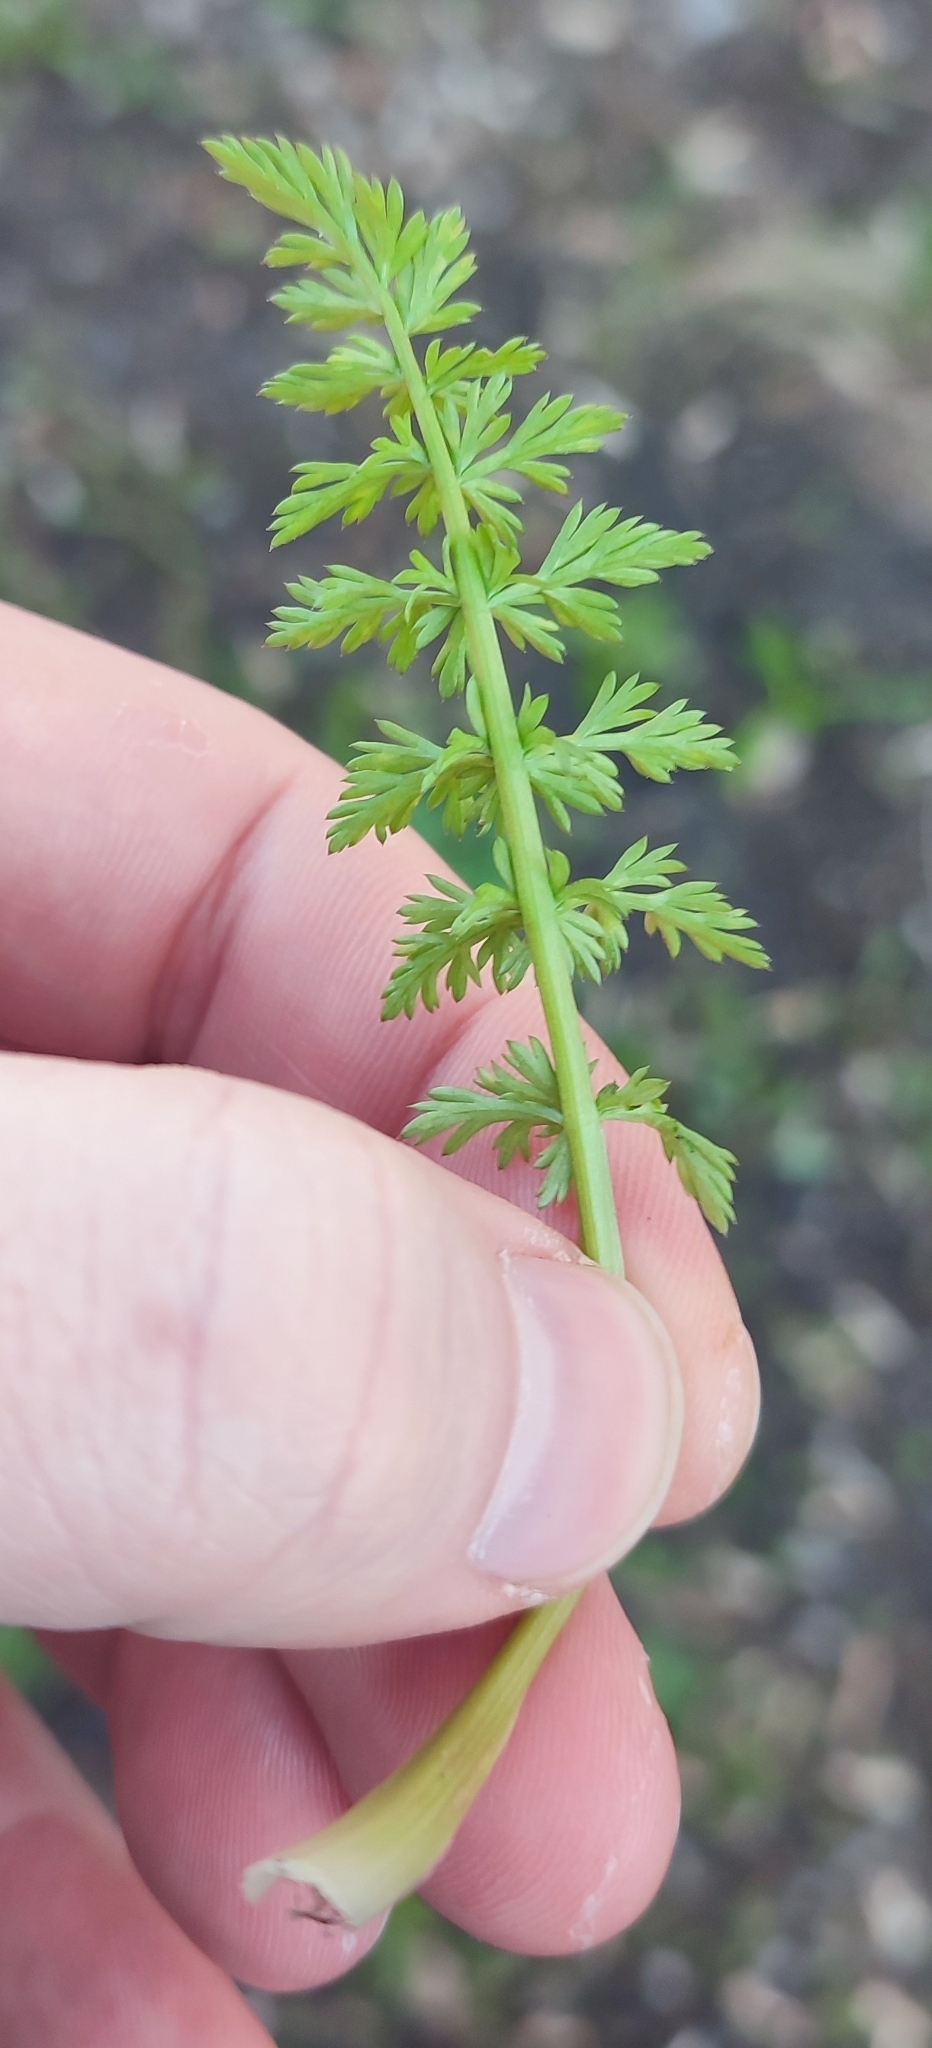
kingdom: Plantae
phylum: Tracheophyta
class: Magnoliopsida
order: Apiales
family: Apiaceae
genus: Carum
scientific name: Carum carvi
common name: Caraway
